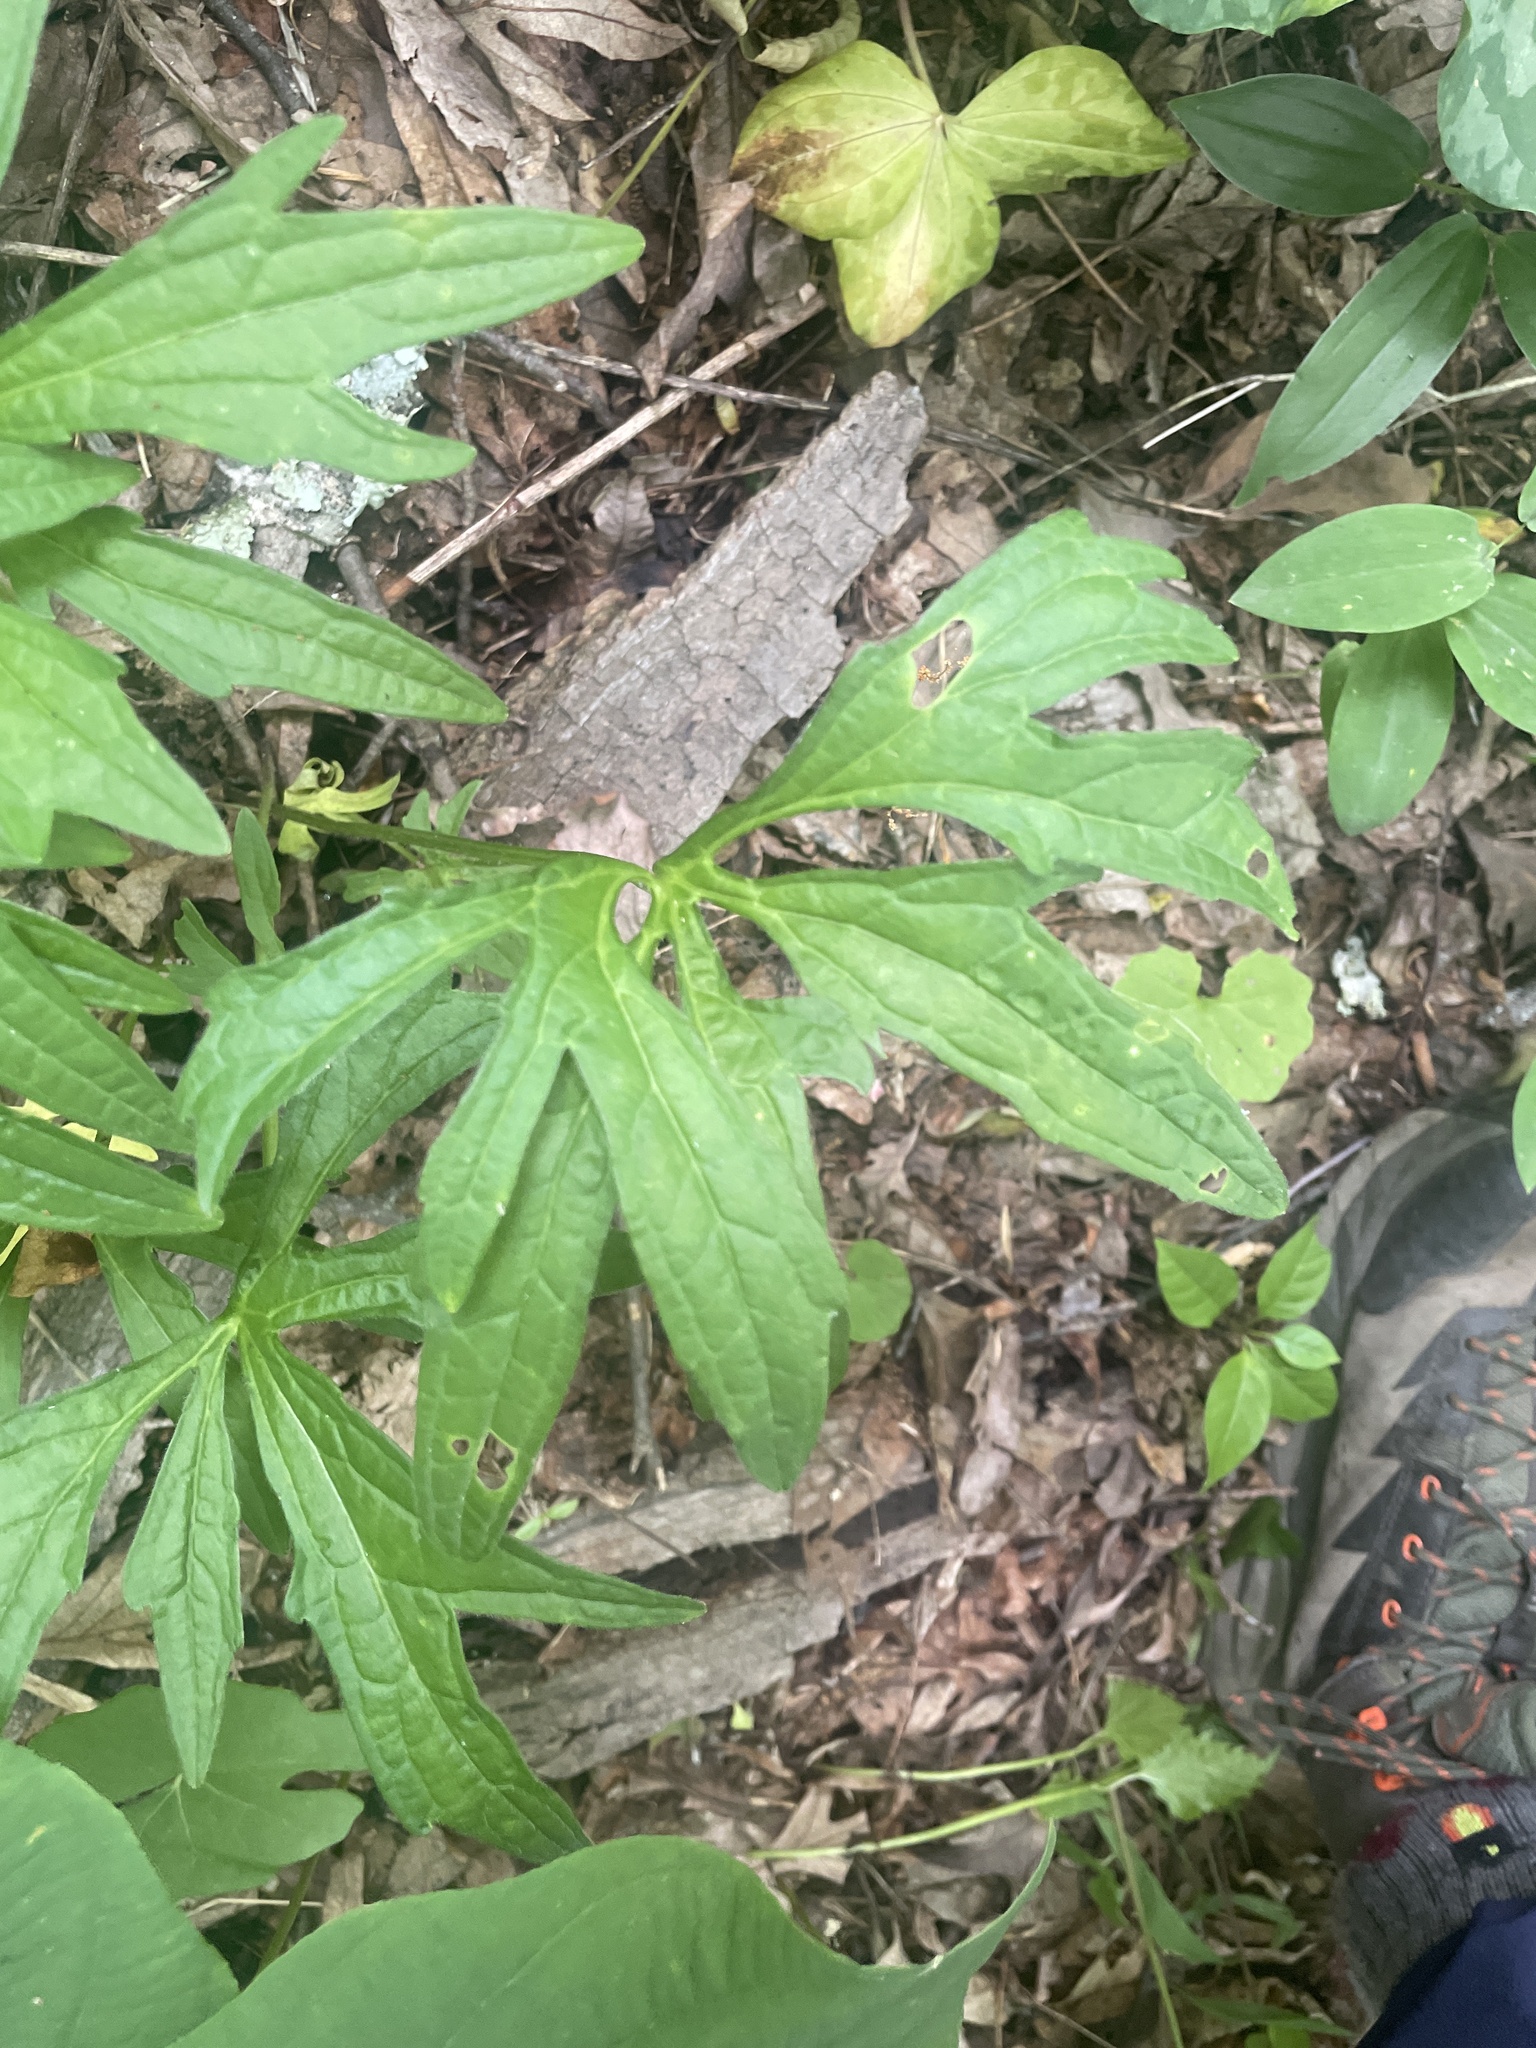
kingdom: Plantae
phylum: Tracheophyta
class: Magnoliopsida
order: Malpighiales
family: Violaceae
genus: Viola
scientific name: Viola palmata
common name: Early blue violet
